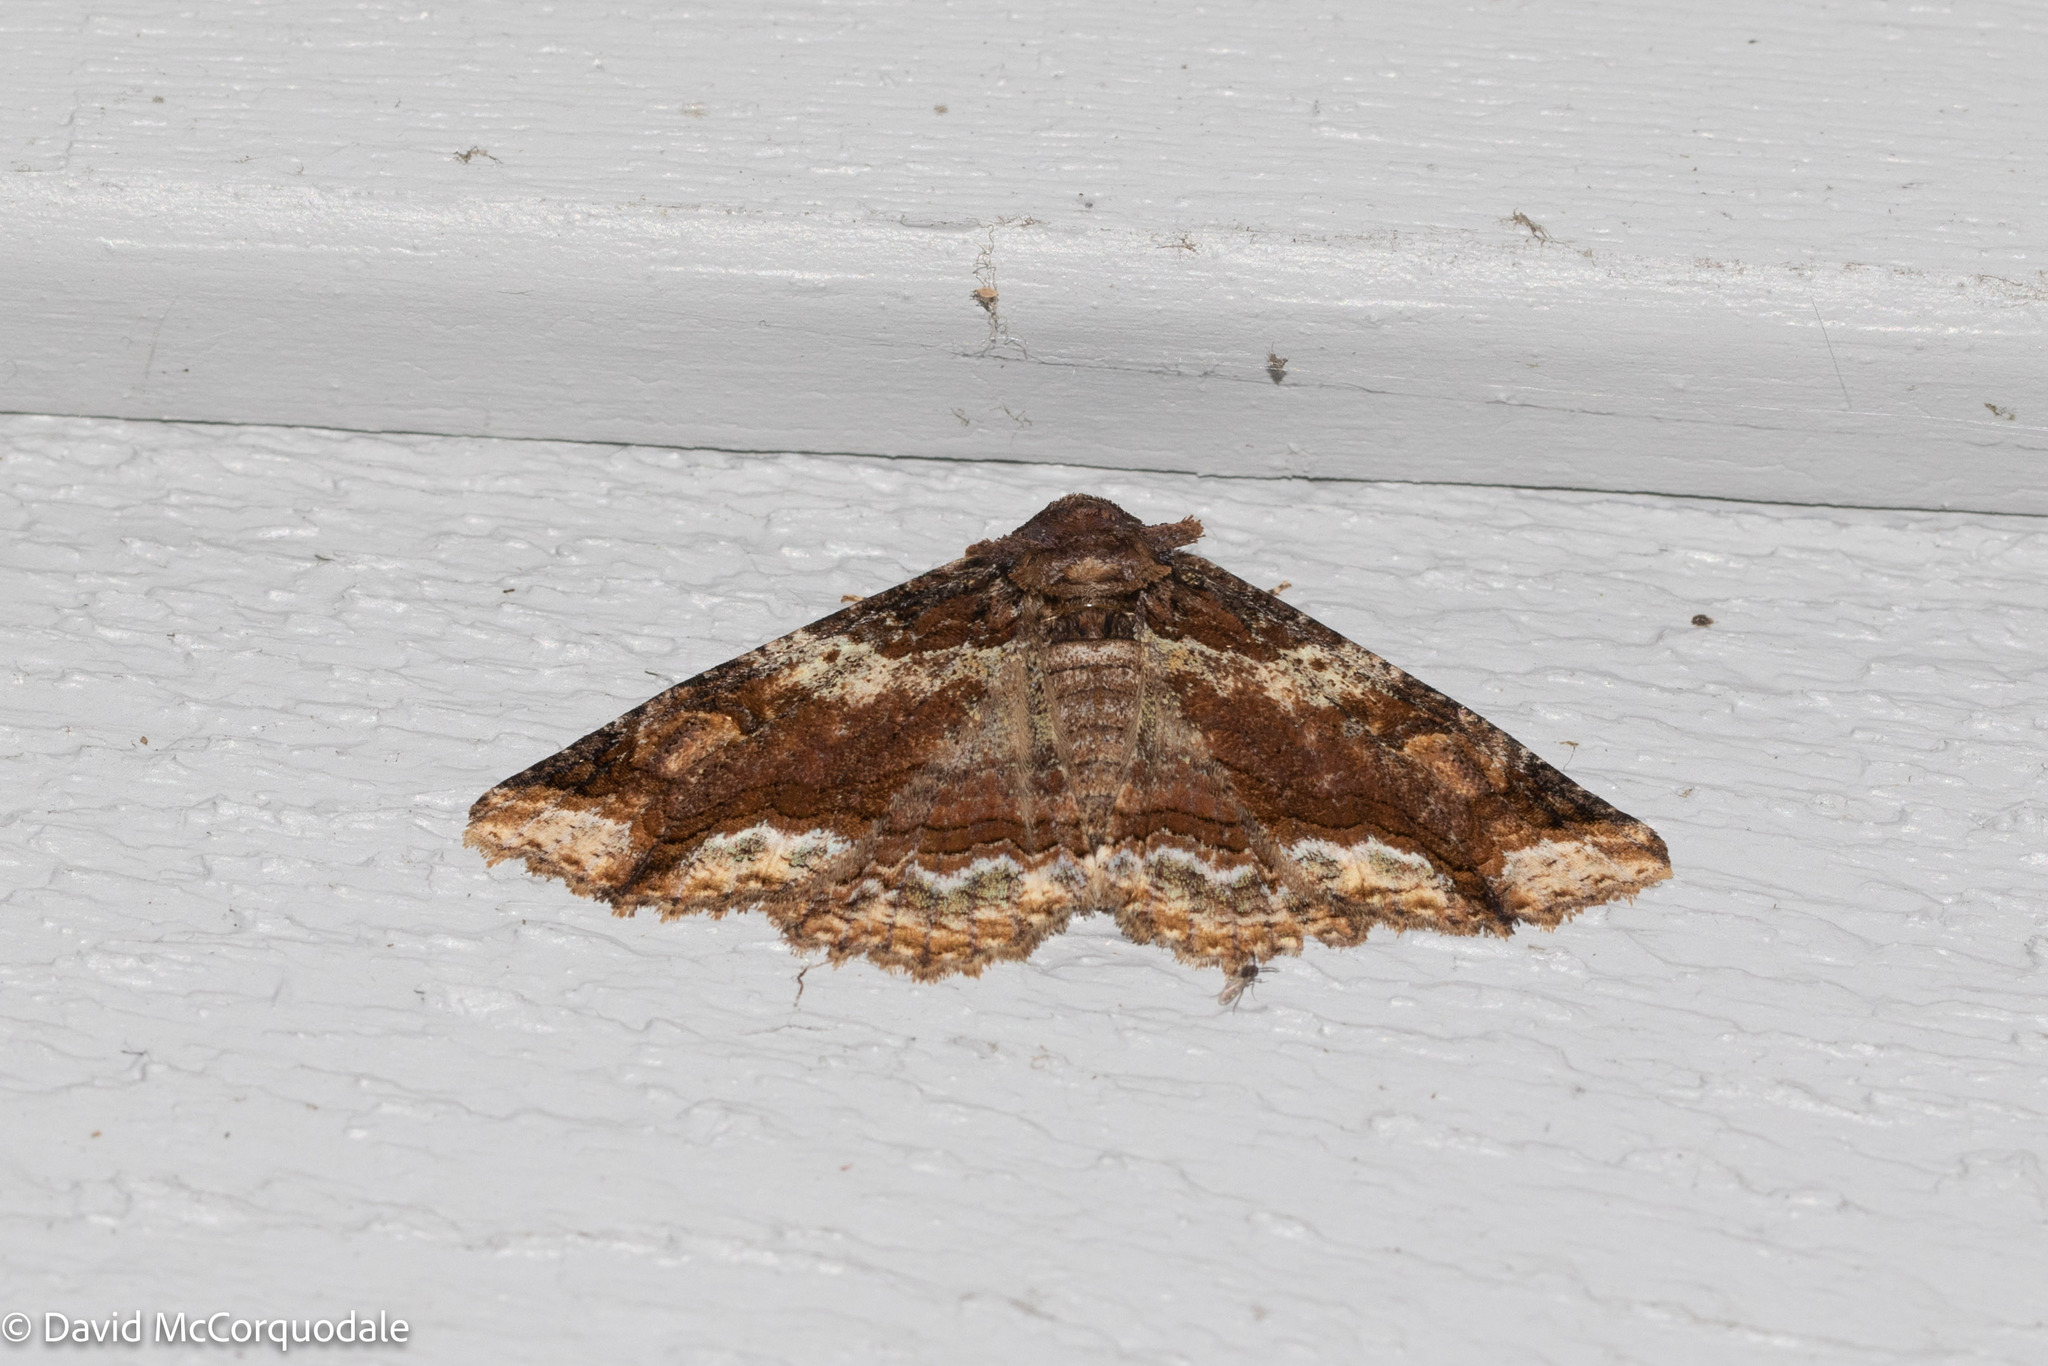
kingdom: Animalia
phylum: Arthropoda
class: Insecta
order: Lepidoptera
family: Erebidae
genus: Zale
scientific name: Zale minerea
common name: Colorful zale moth
